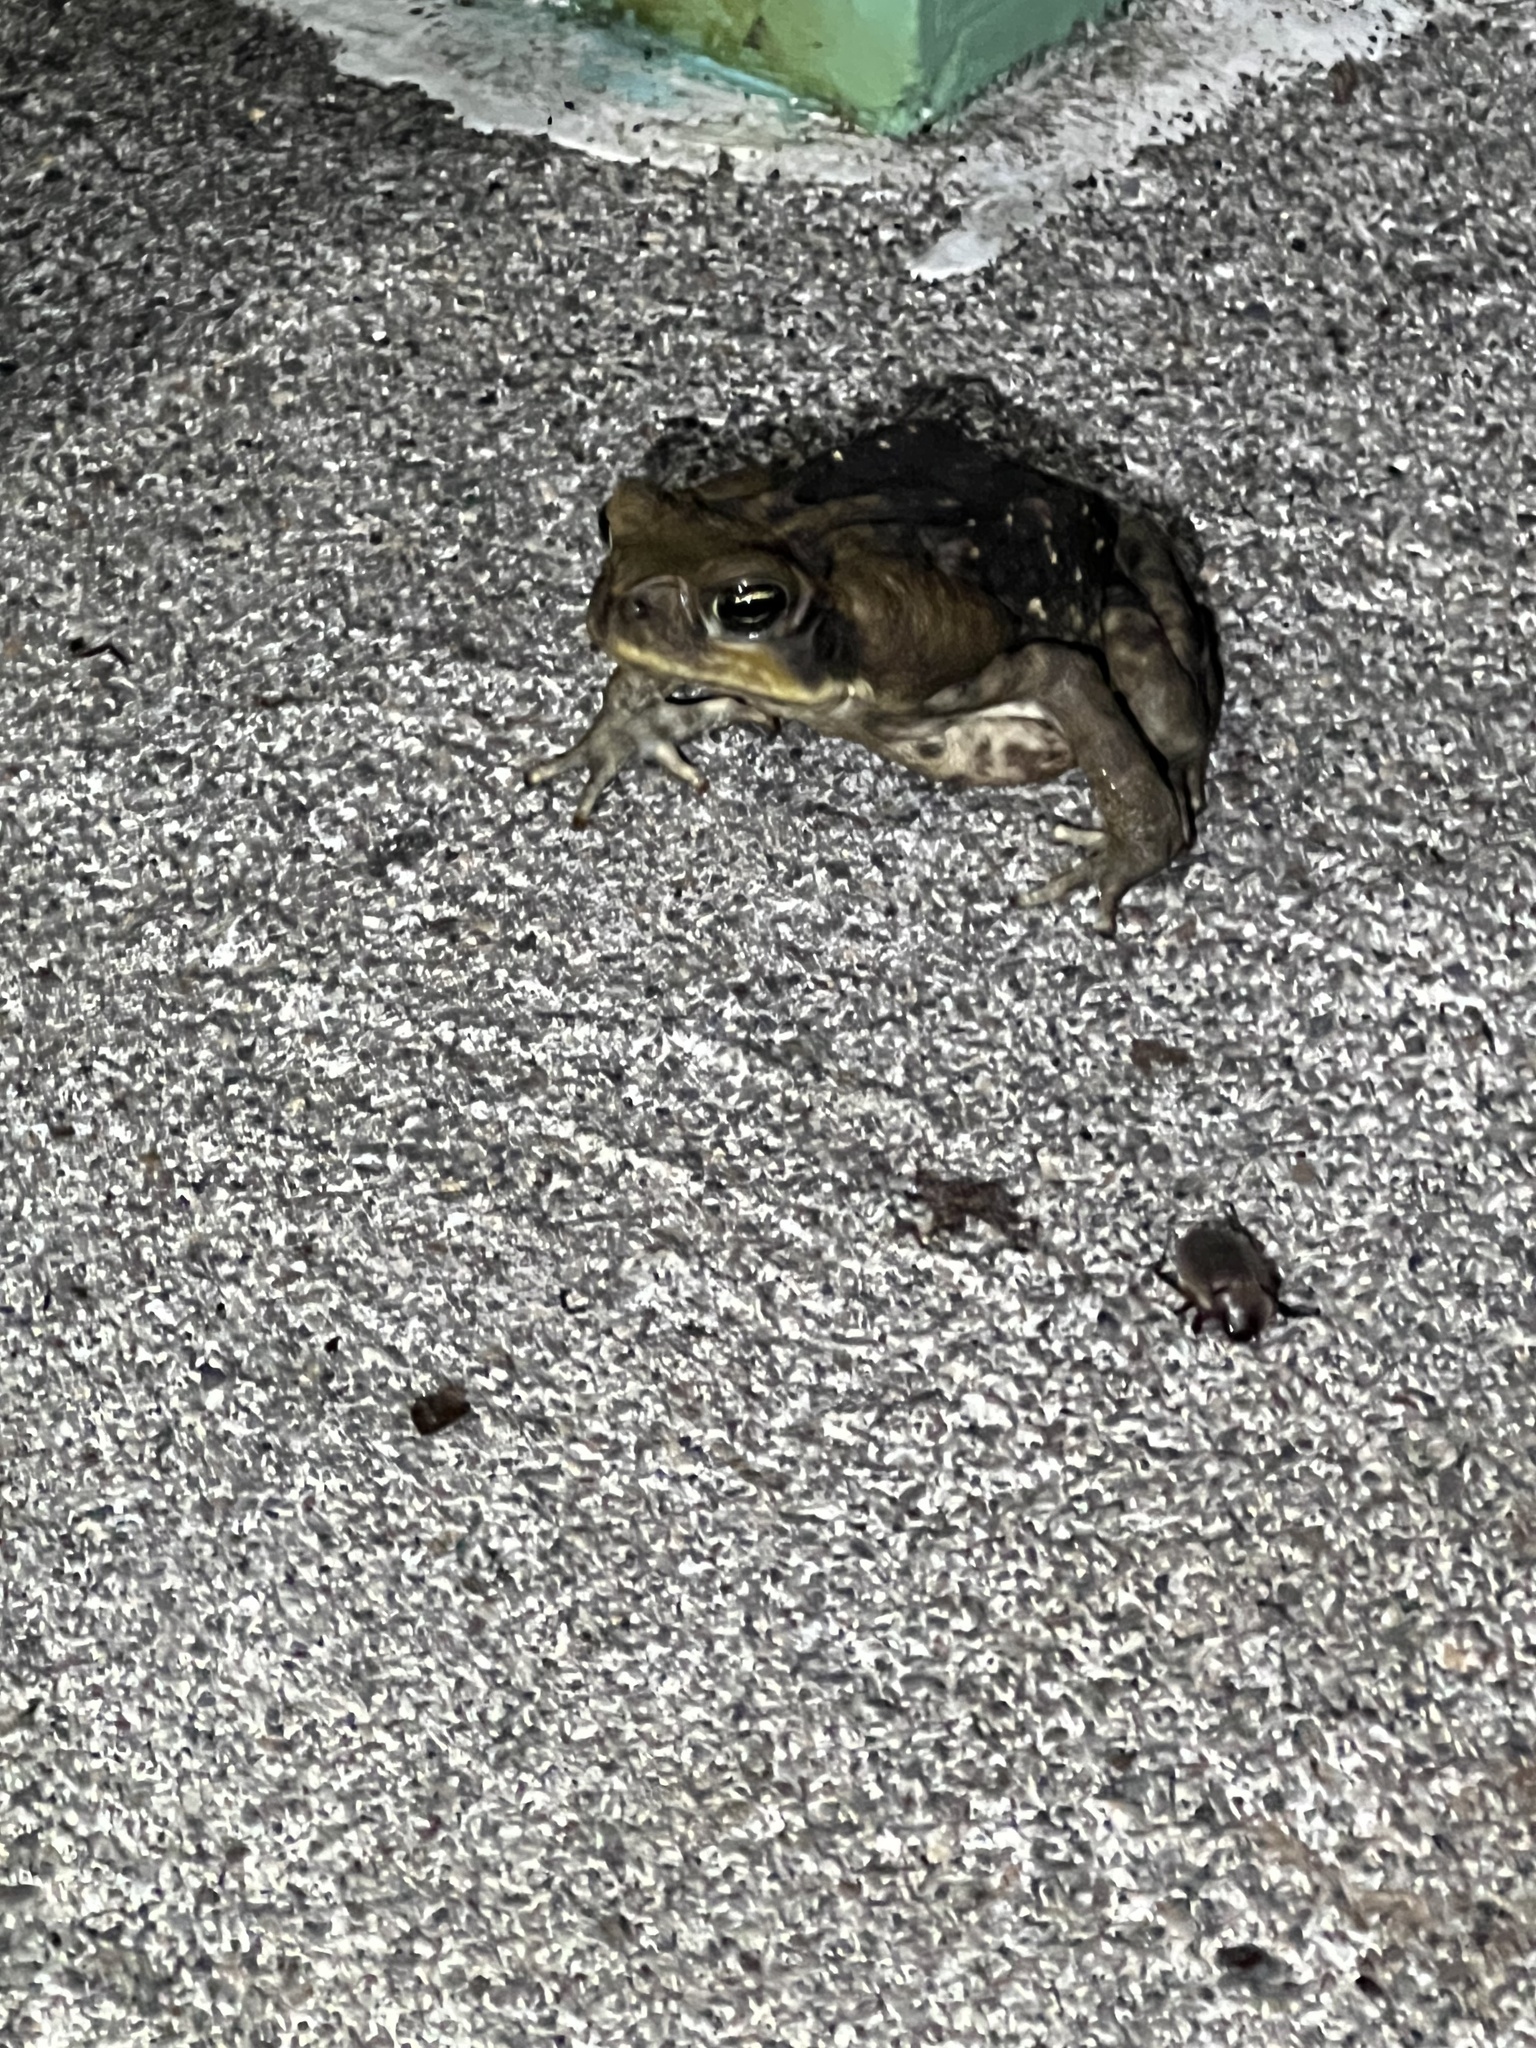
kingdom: Animalia
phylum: Chordata
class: Amphibia
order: Anura
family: Bufonidae
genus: Rhinella
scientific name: Rhinella horribilis
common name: Mesoamerican cane toad
